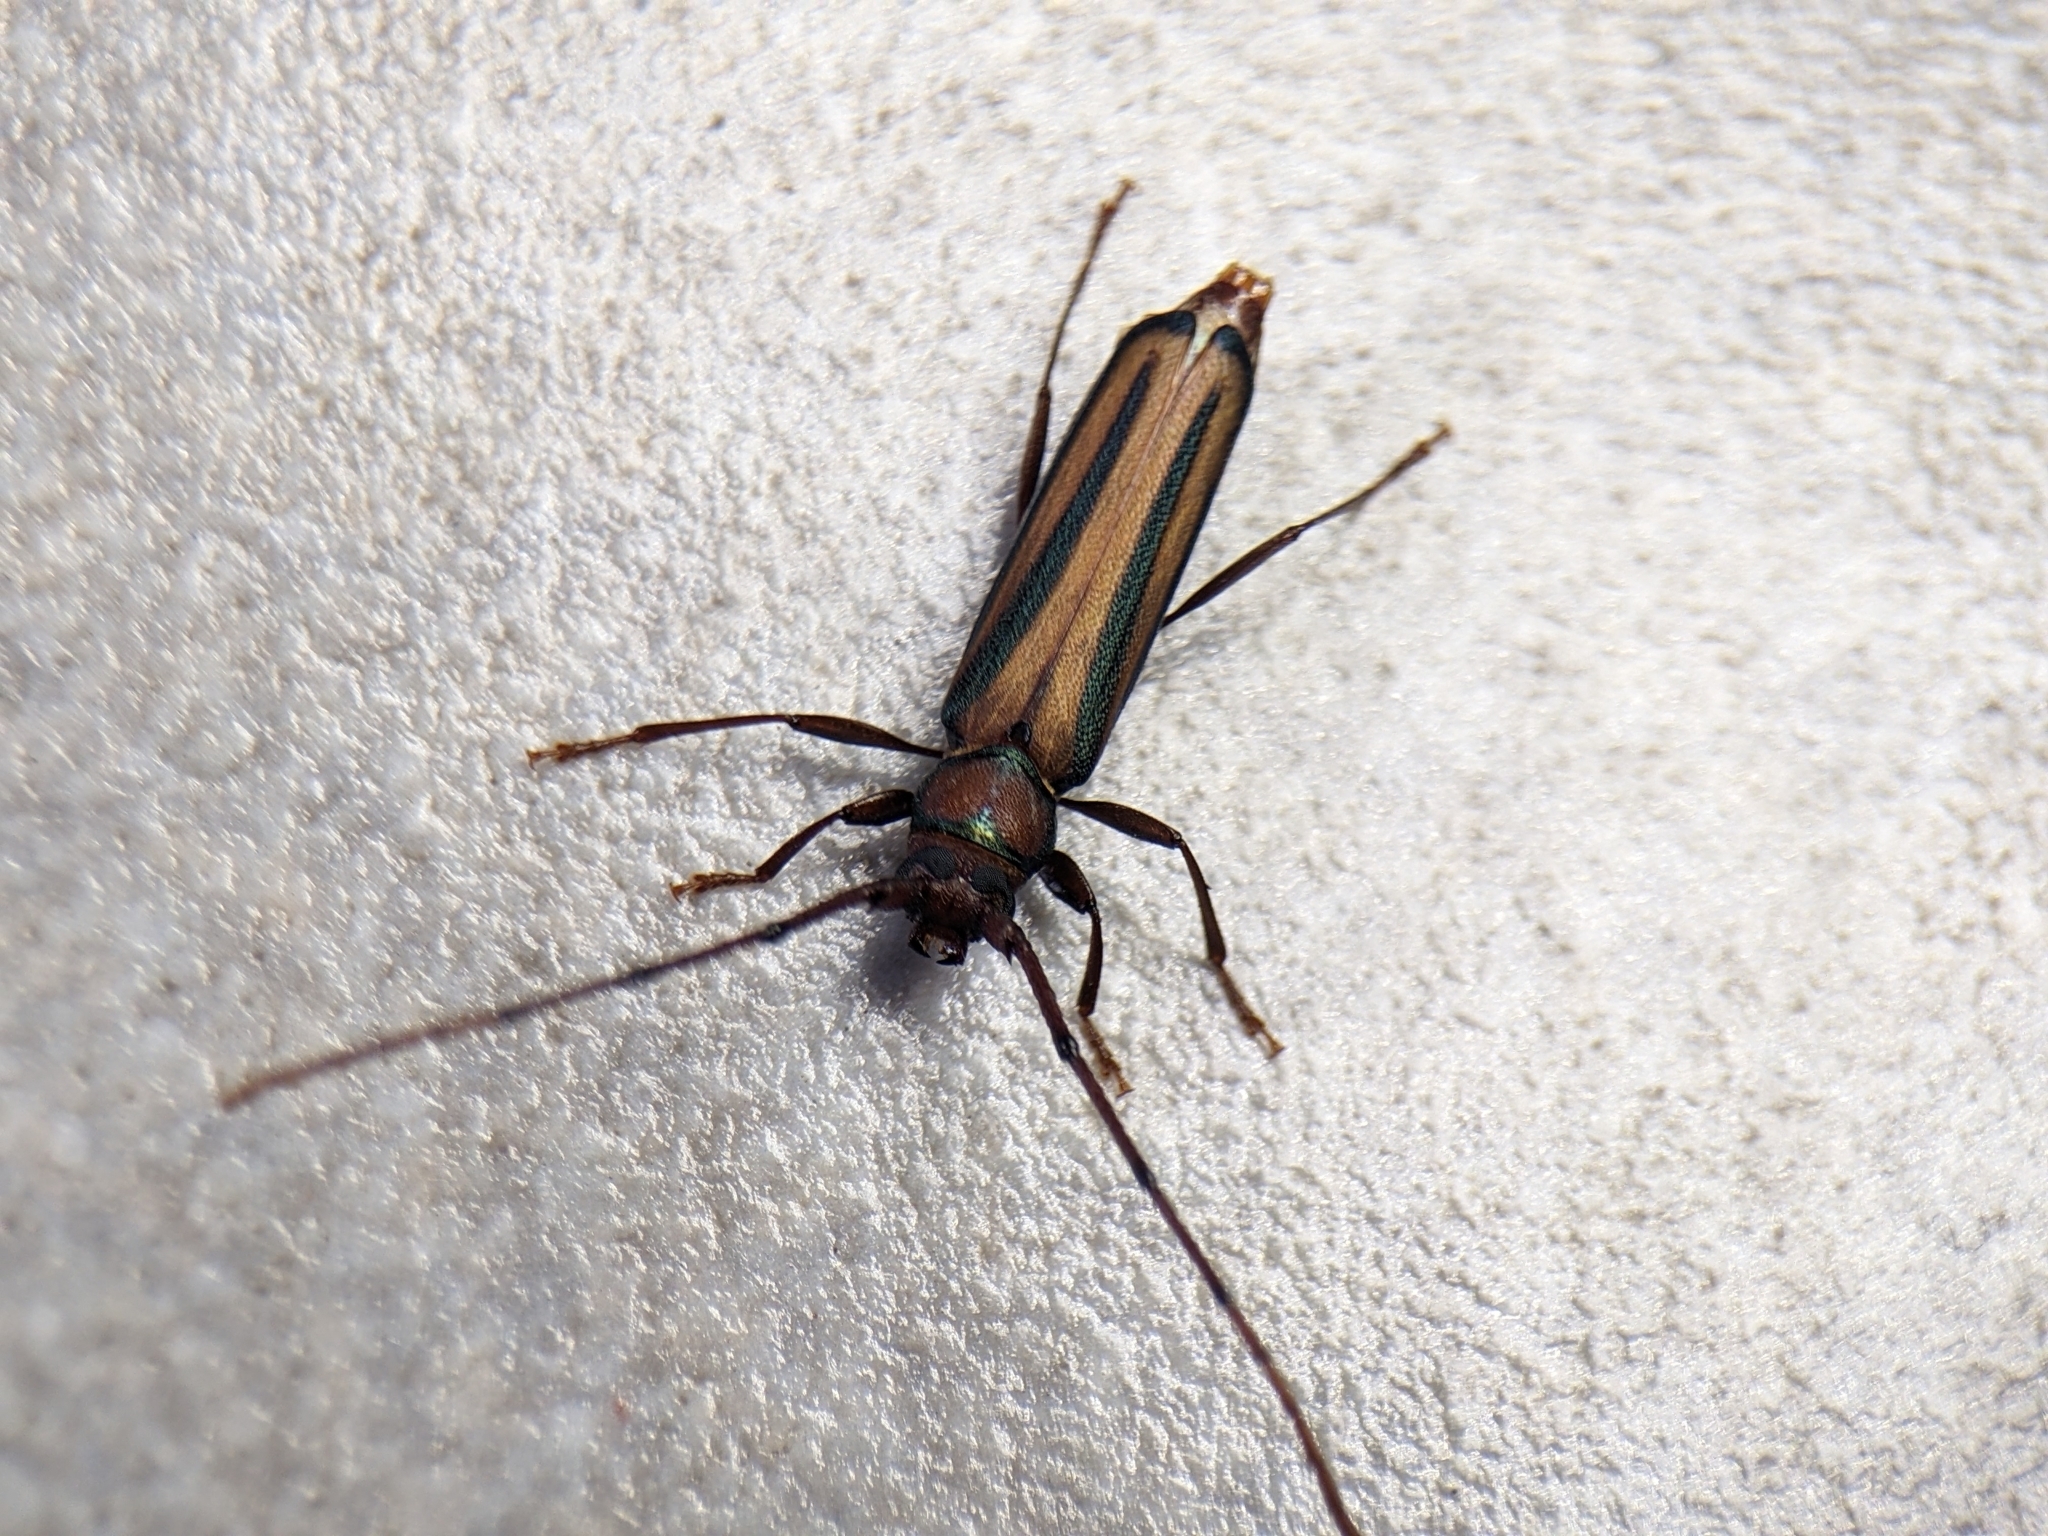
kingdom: Animalia
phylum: Arthropoda
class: Insecta
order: Coleoptera
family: Cerambycidae
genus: Xystrocera
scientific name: Xystrocera globosa
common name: Peach-tree longhorn
